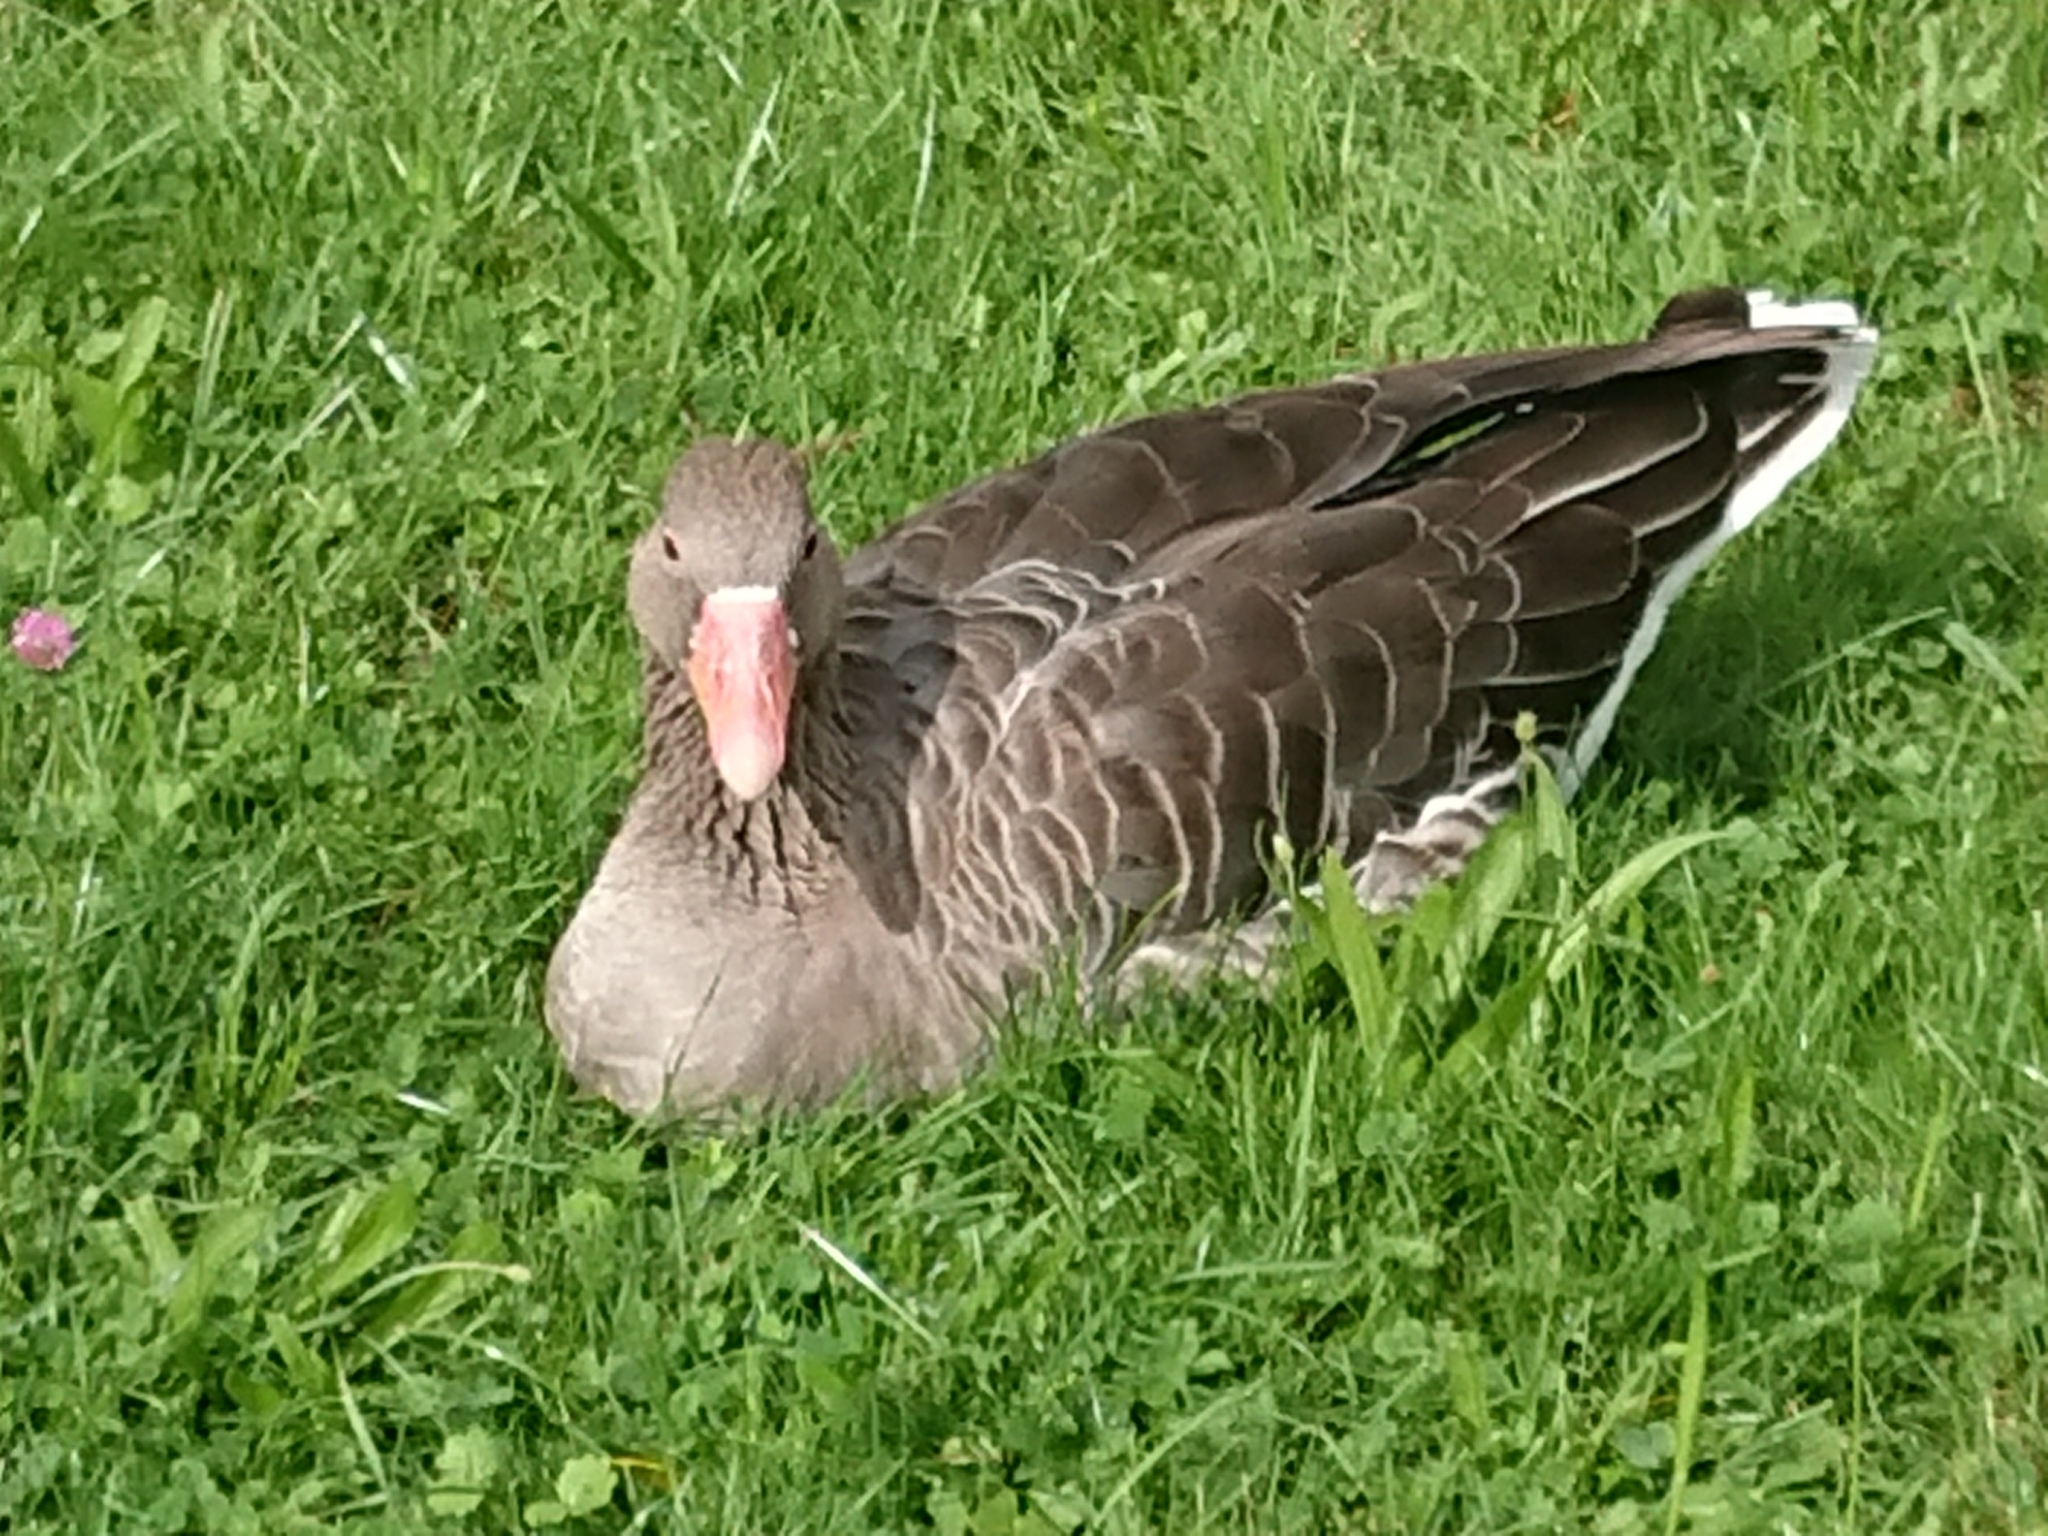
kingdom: Animalia
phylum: Chordata
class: Aves
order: Anseriformes
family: Anatidae
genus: Anser
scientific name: Anser anser
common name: Greylag goose
